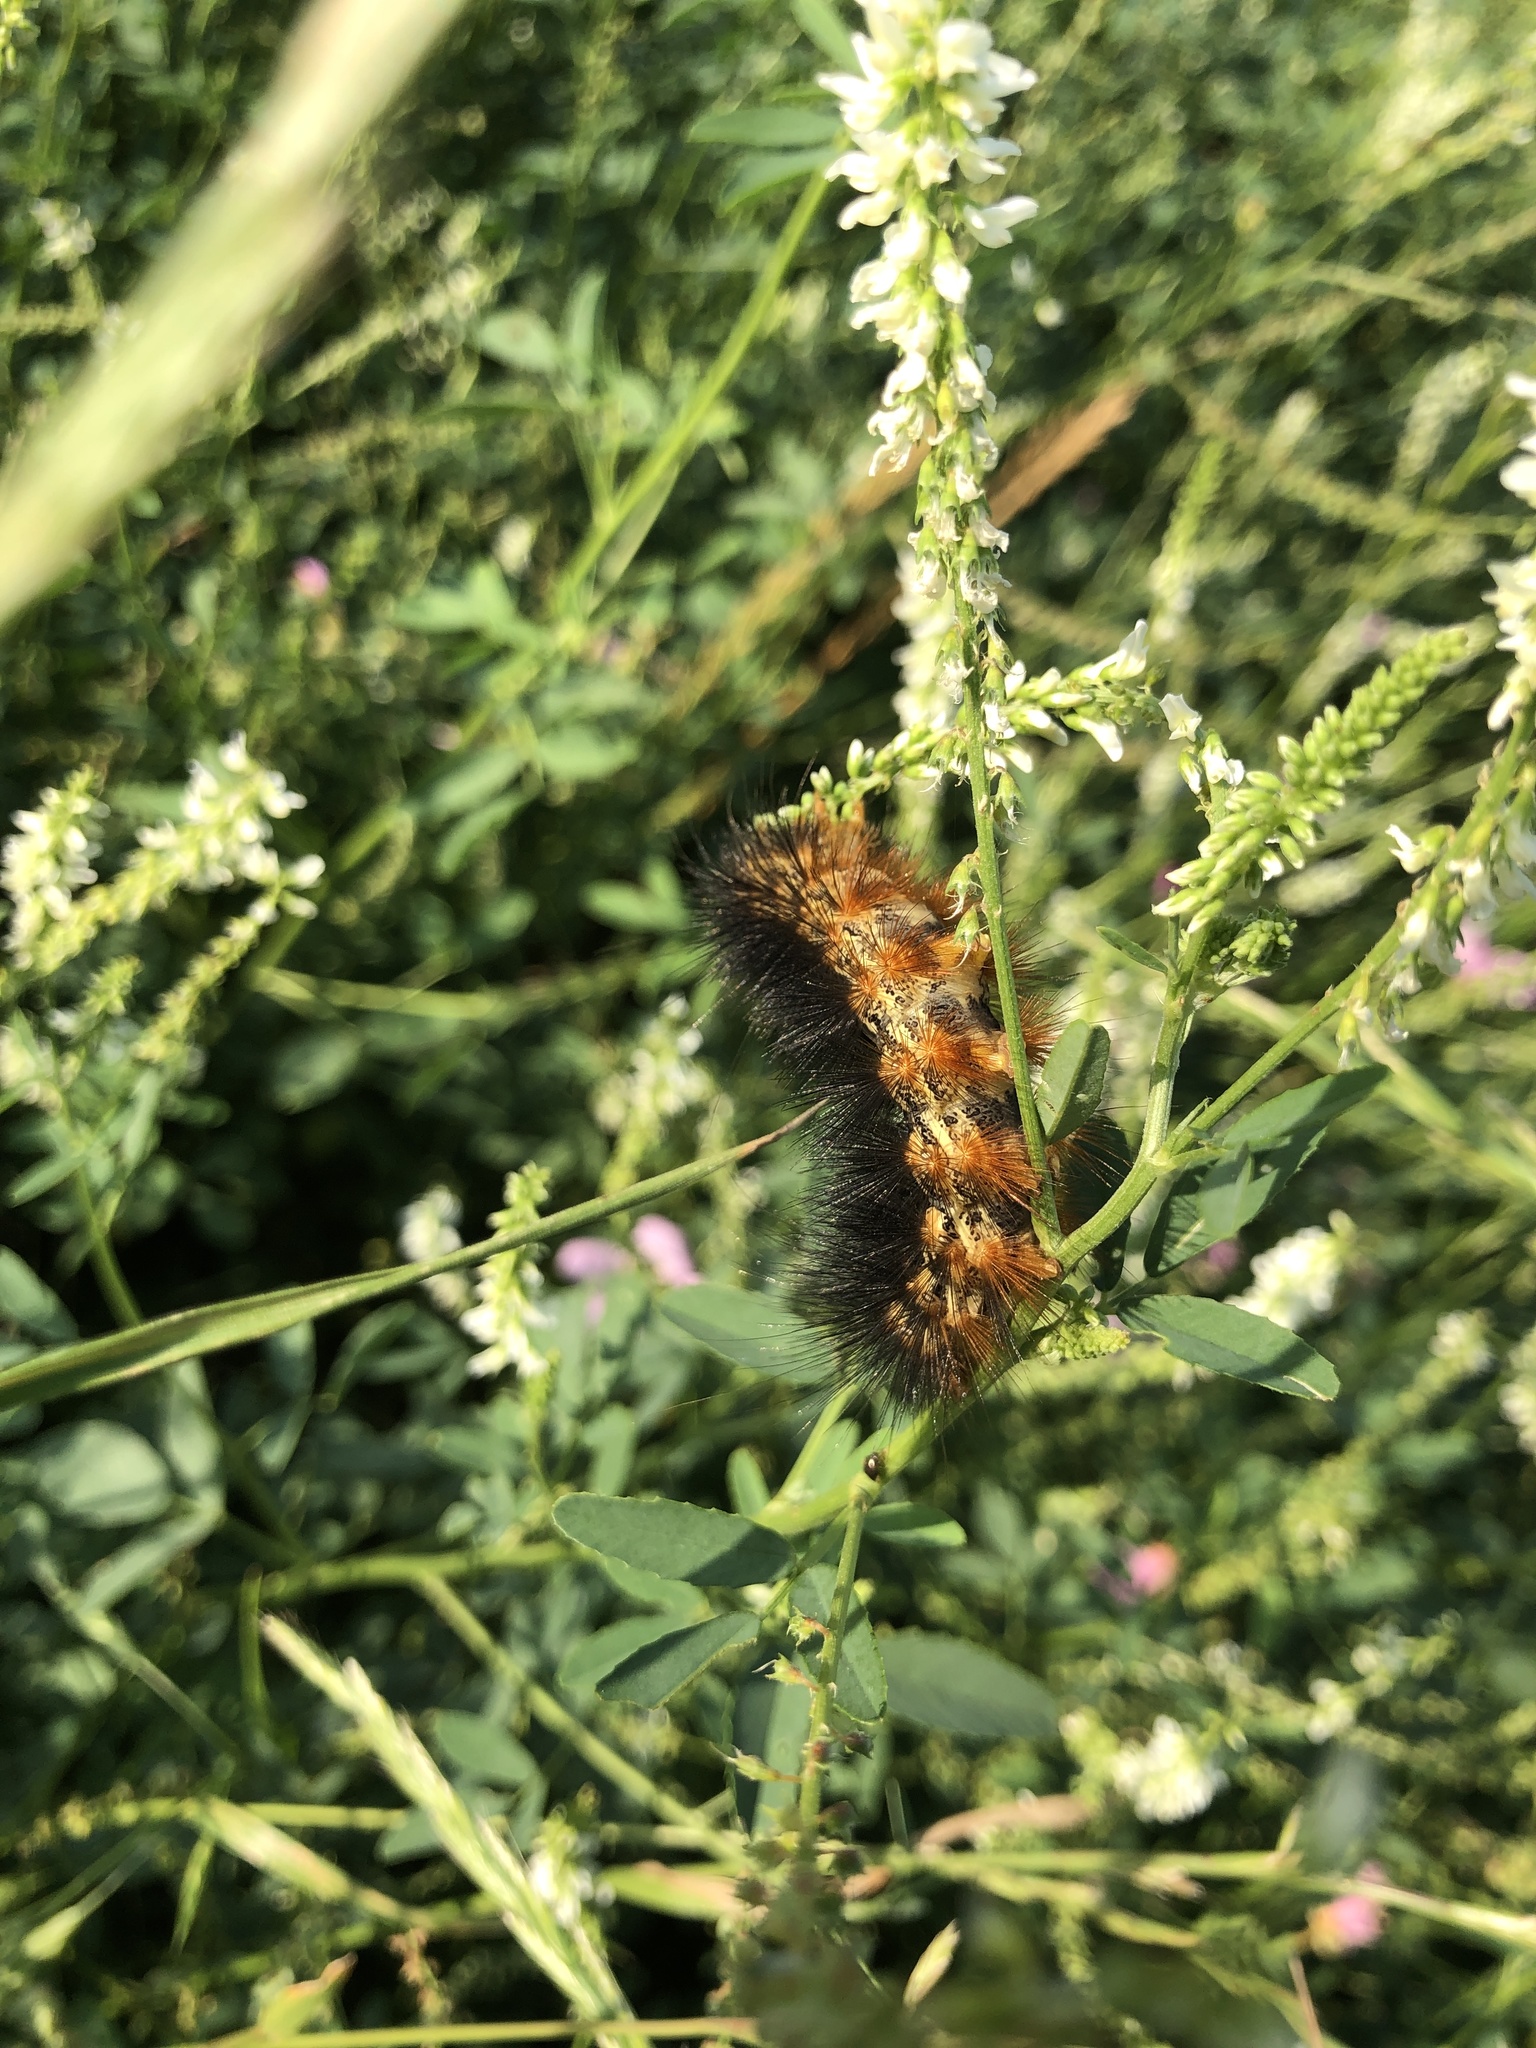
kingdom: Animalia
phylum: Arthropoda
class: Insecta
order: Lepidoptera
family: Erebidae
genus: Estigmene
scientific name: Estigmene acrea
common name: Salt marsh moth
